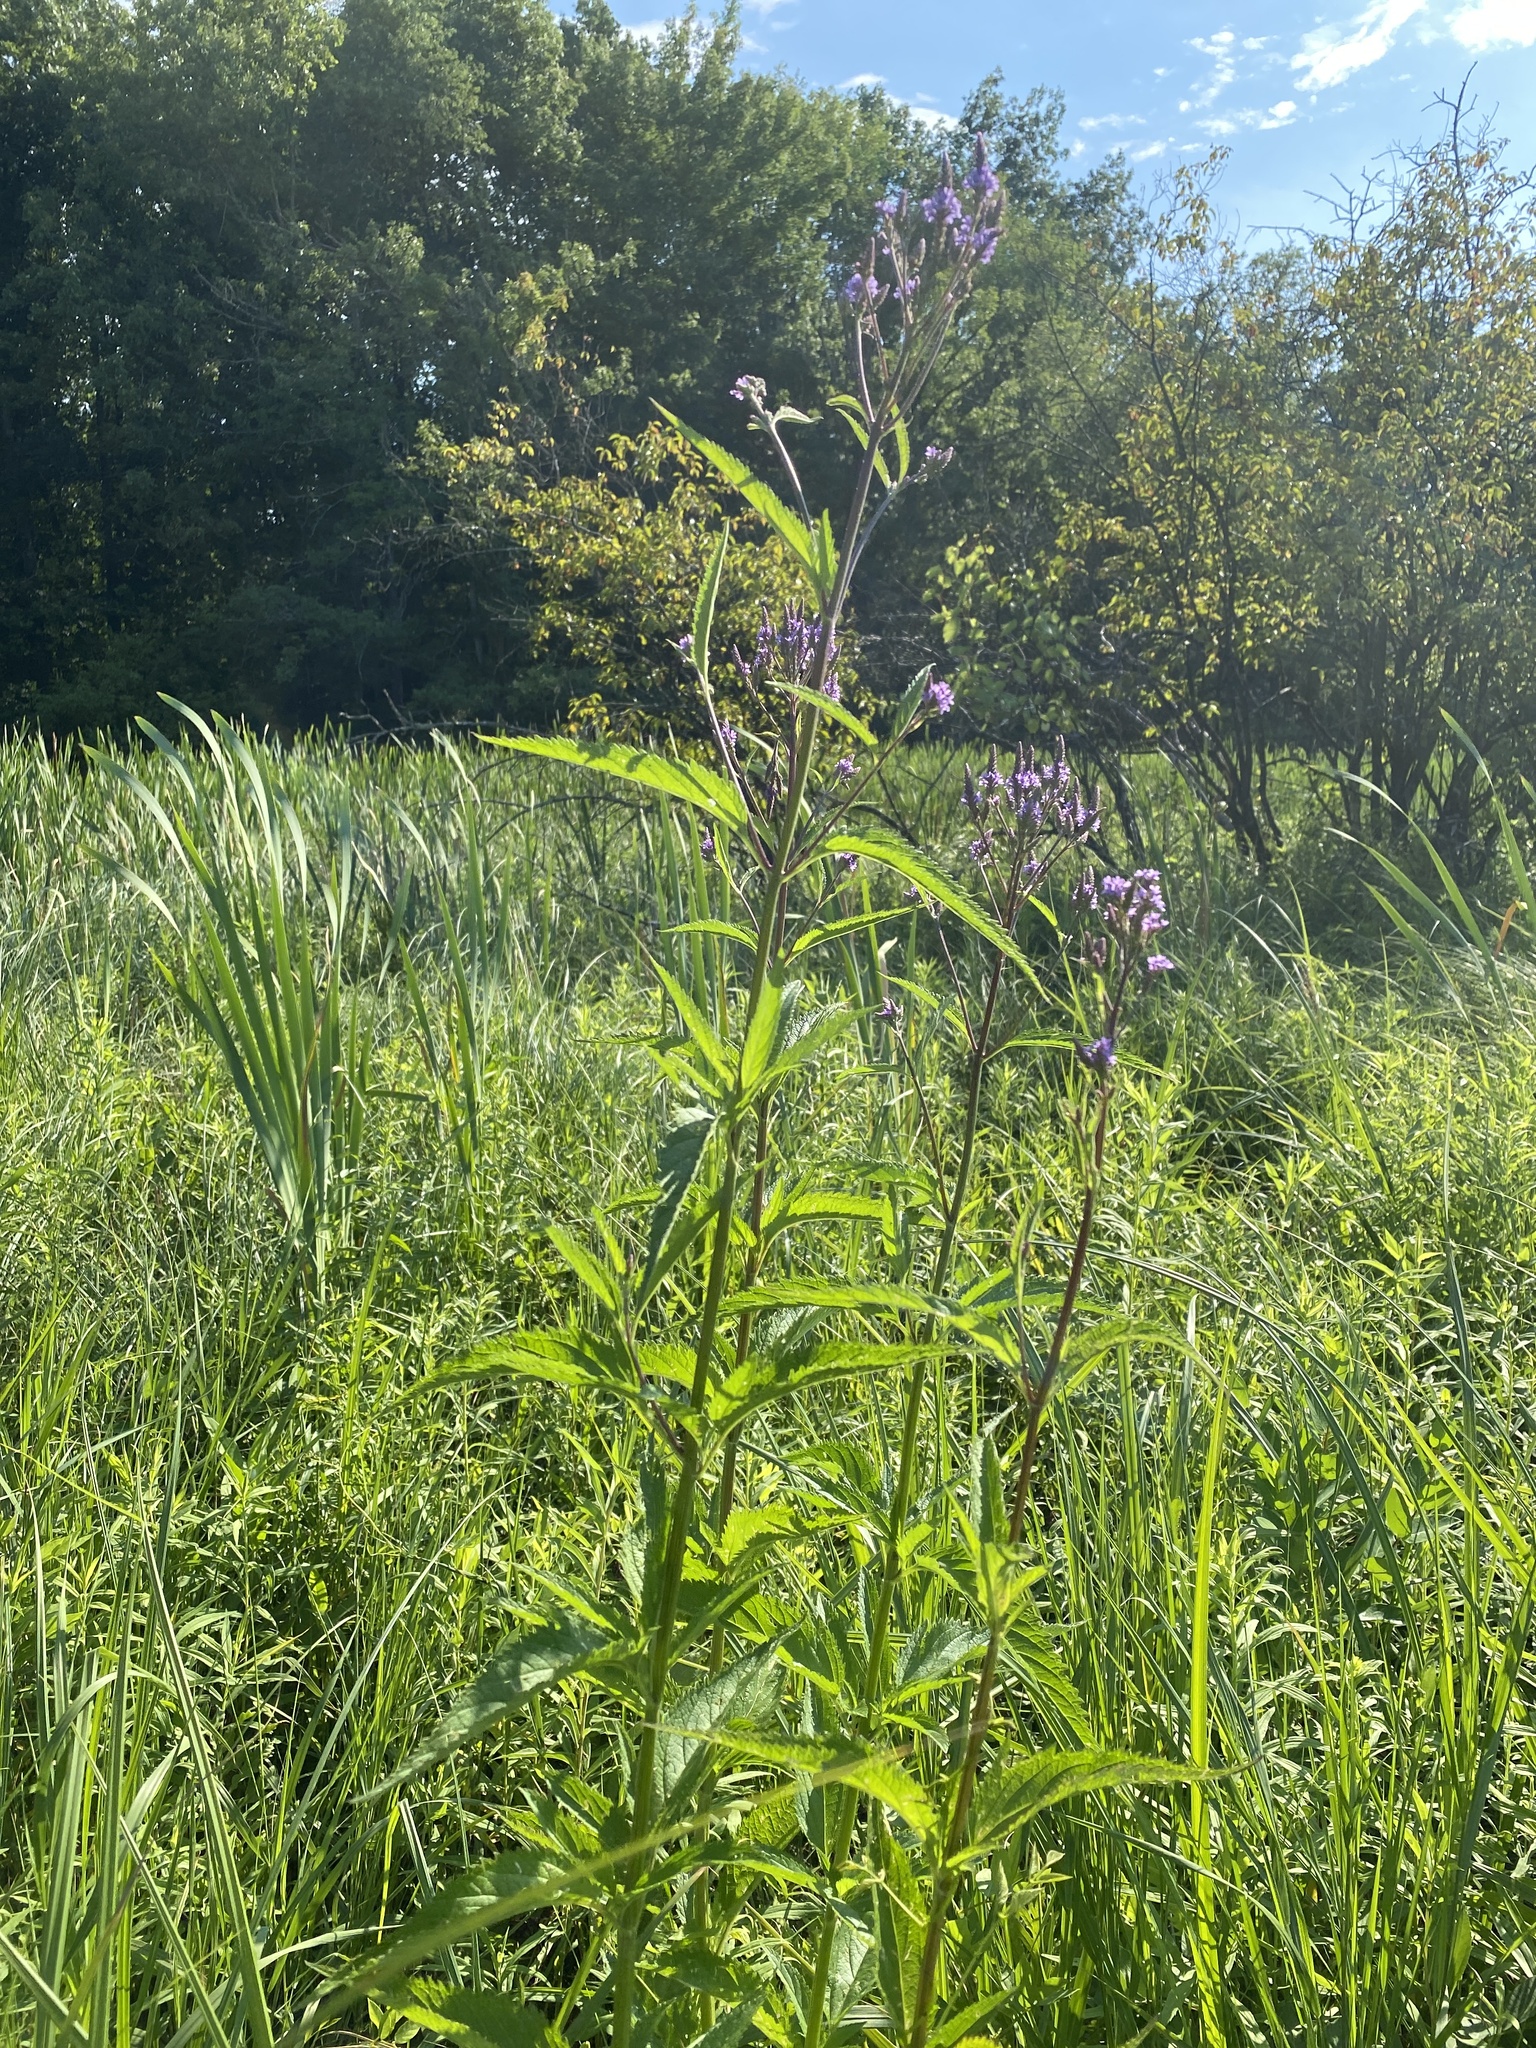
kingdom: Plantae
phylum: Tracheophyta
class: Magnoliopsida
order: Lamiales
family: Verbenaceae
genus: Verbena
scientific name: Verbena hastata
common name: American blue vervain
